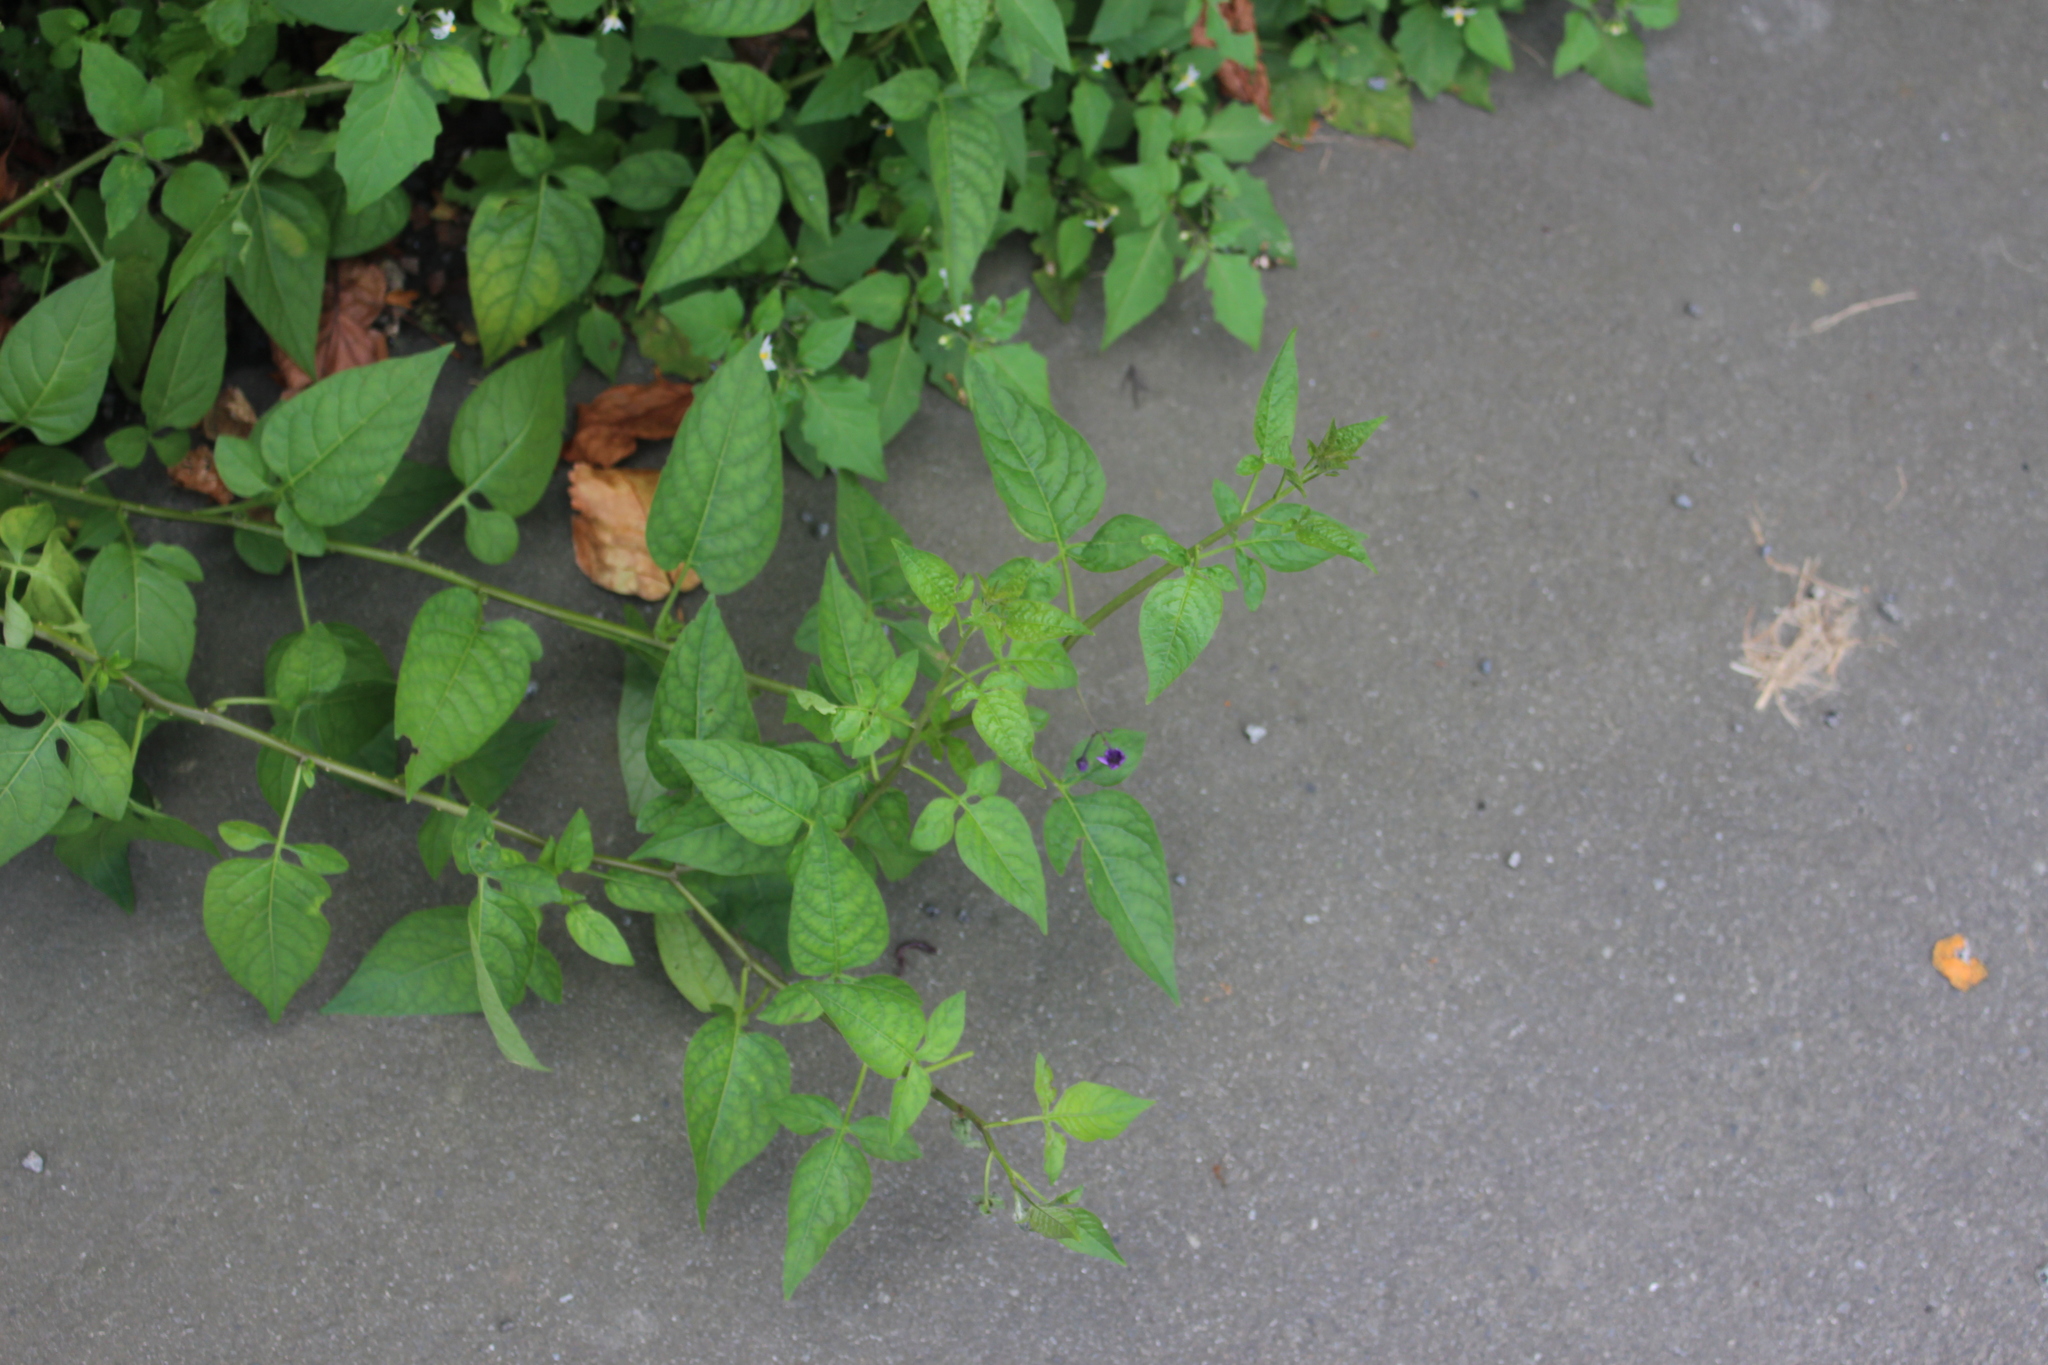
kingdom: Plantae
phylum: Tracheophyta
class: Magnoliopsida
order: Solanales
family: Solanaceae
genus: Solanum
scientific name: Solanum dulcamara
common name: Climbing nightshade
